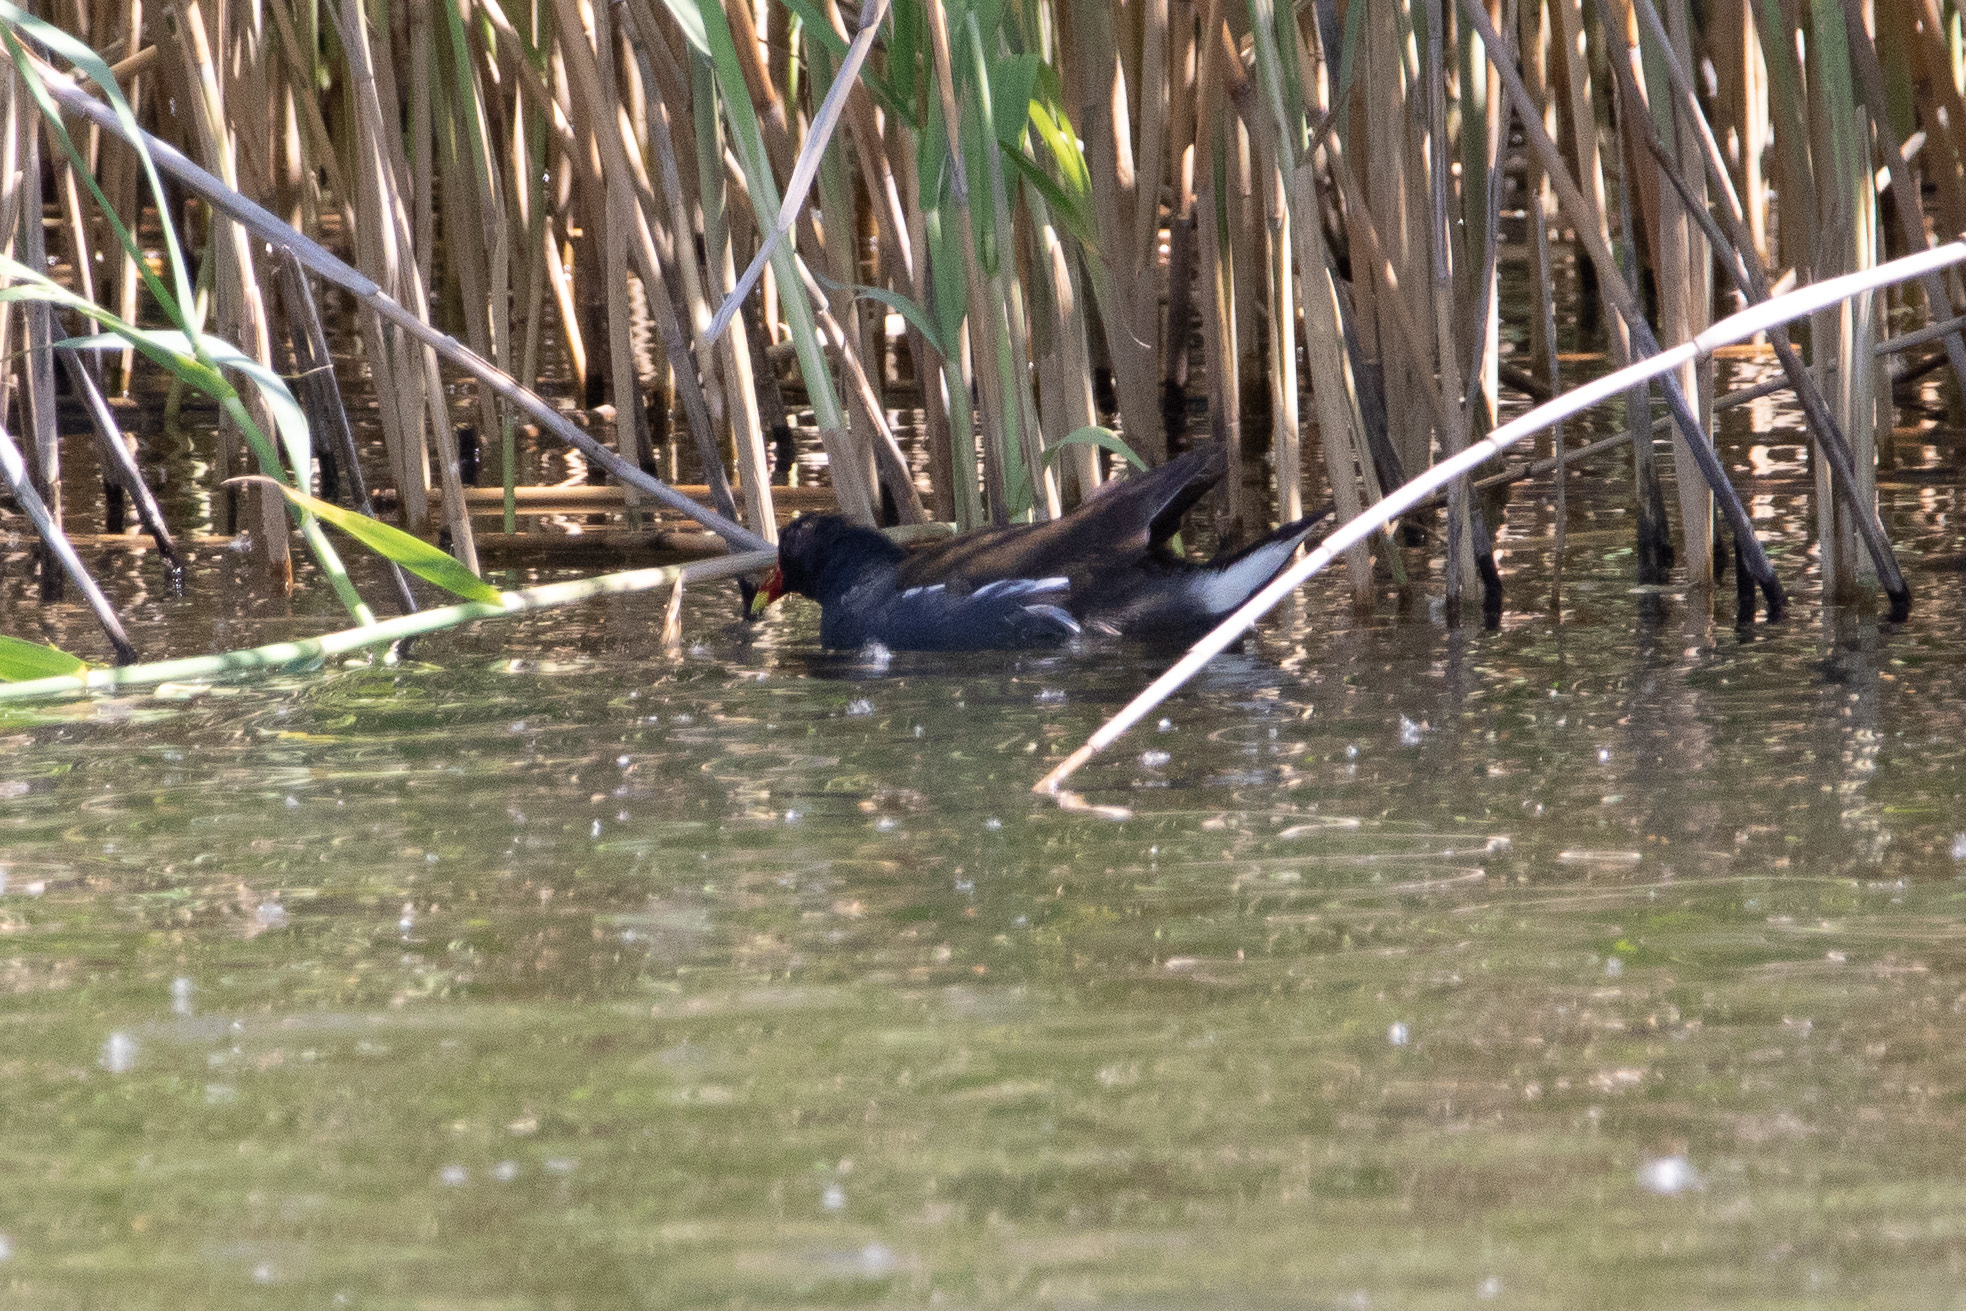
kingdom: Animalia
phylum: Chordata
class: Aves
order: Gruiformes
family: Rallidae
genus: Gallinula
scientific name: Gallinula chloropus
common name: Common moorhen
